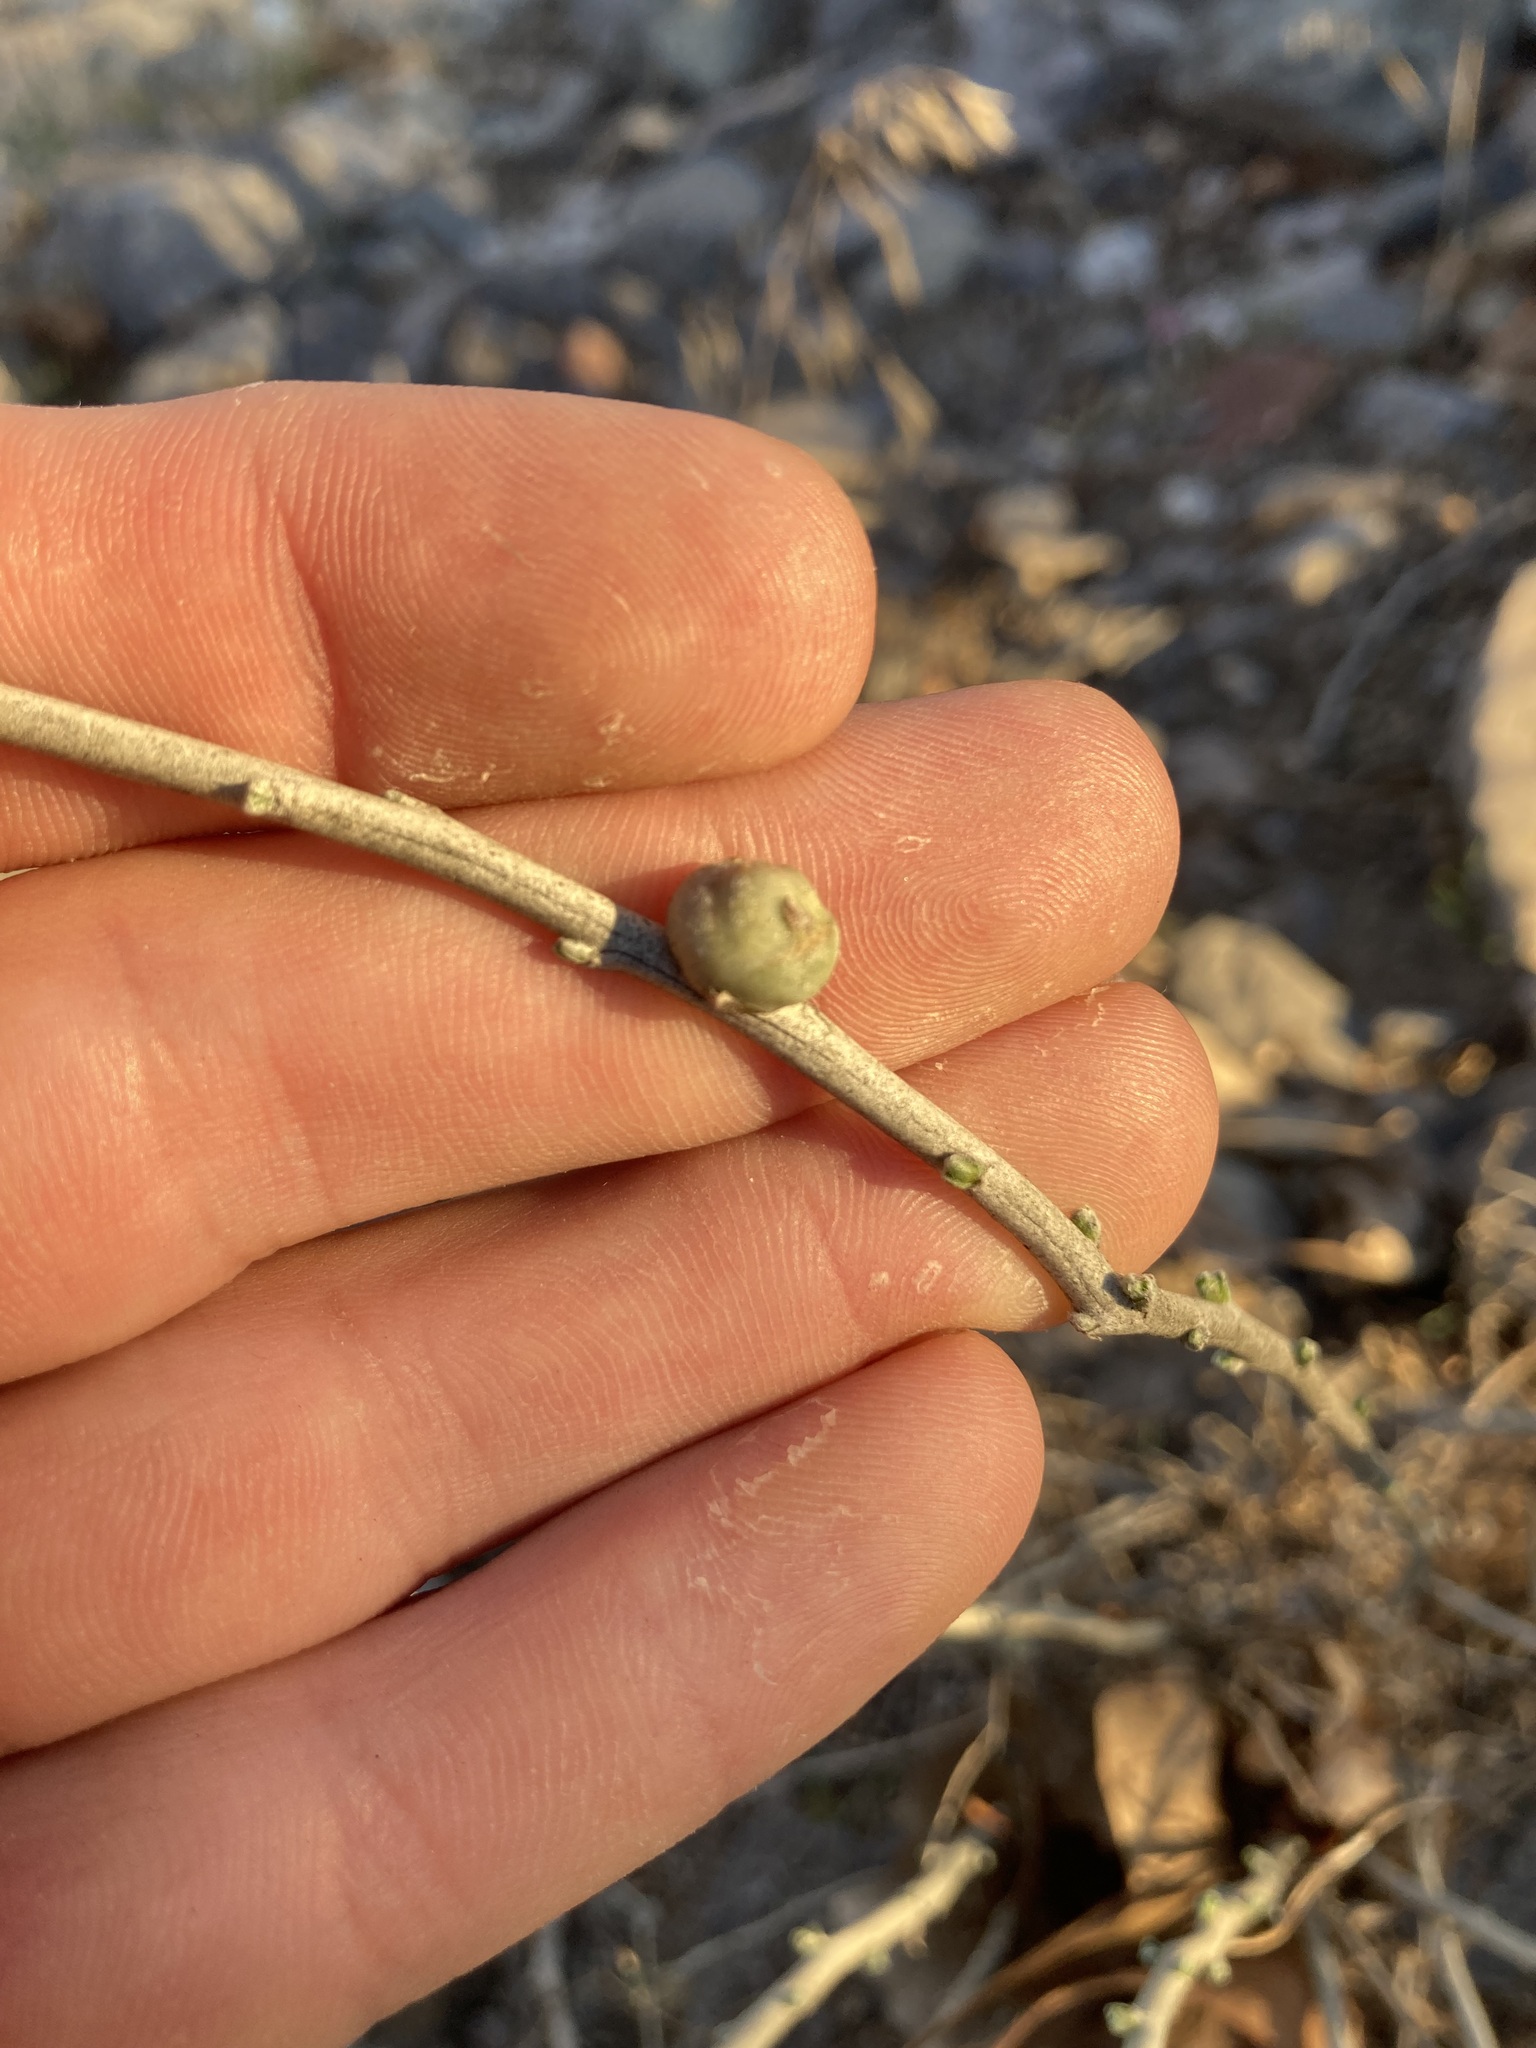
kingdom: Animalia
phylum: Arthropoda
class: Insecta
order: Diptera
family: Tephritidae
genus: Aciurina
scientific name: Aciurina trixa
